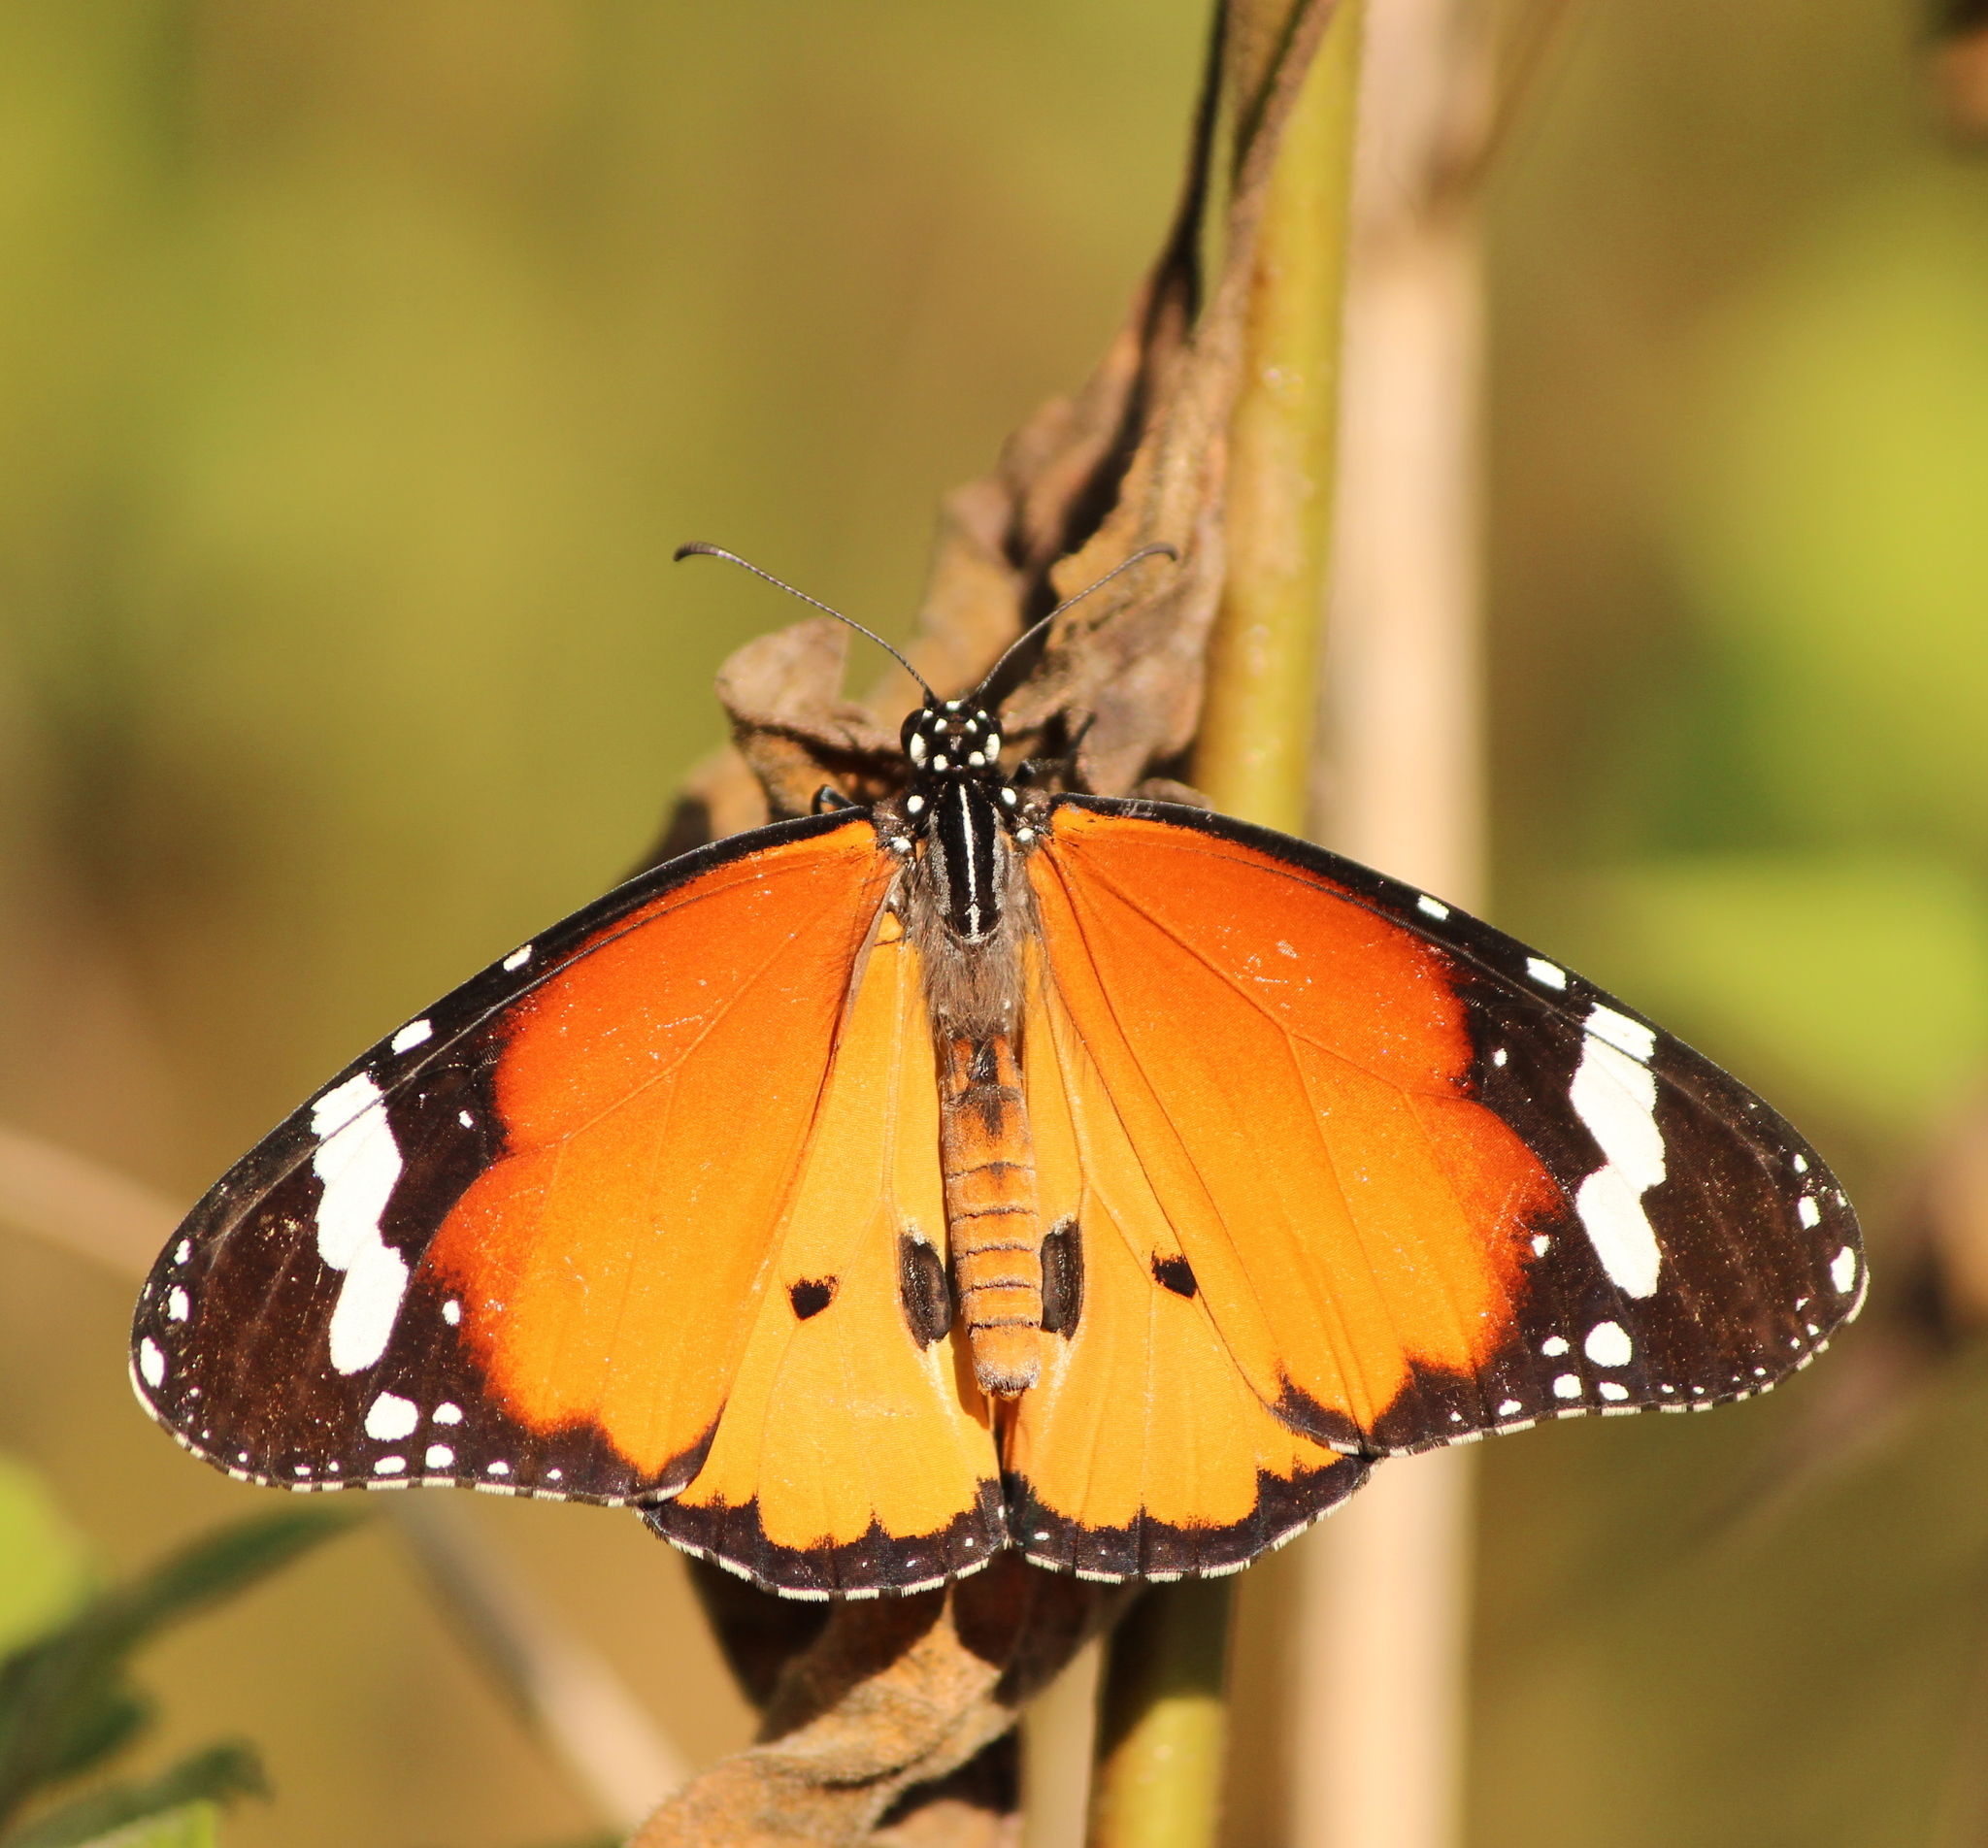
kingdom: Animalia
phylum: Arthropoda
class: Insecta
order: Lepidoptera
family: Nymphalidae
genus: Danaus
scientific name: Danaus chrysippus
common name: Plain tiger
